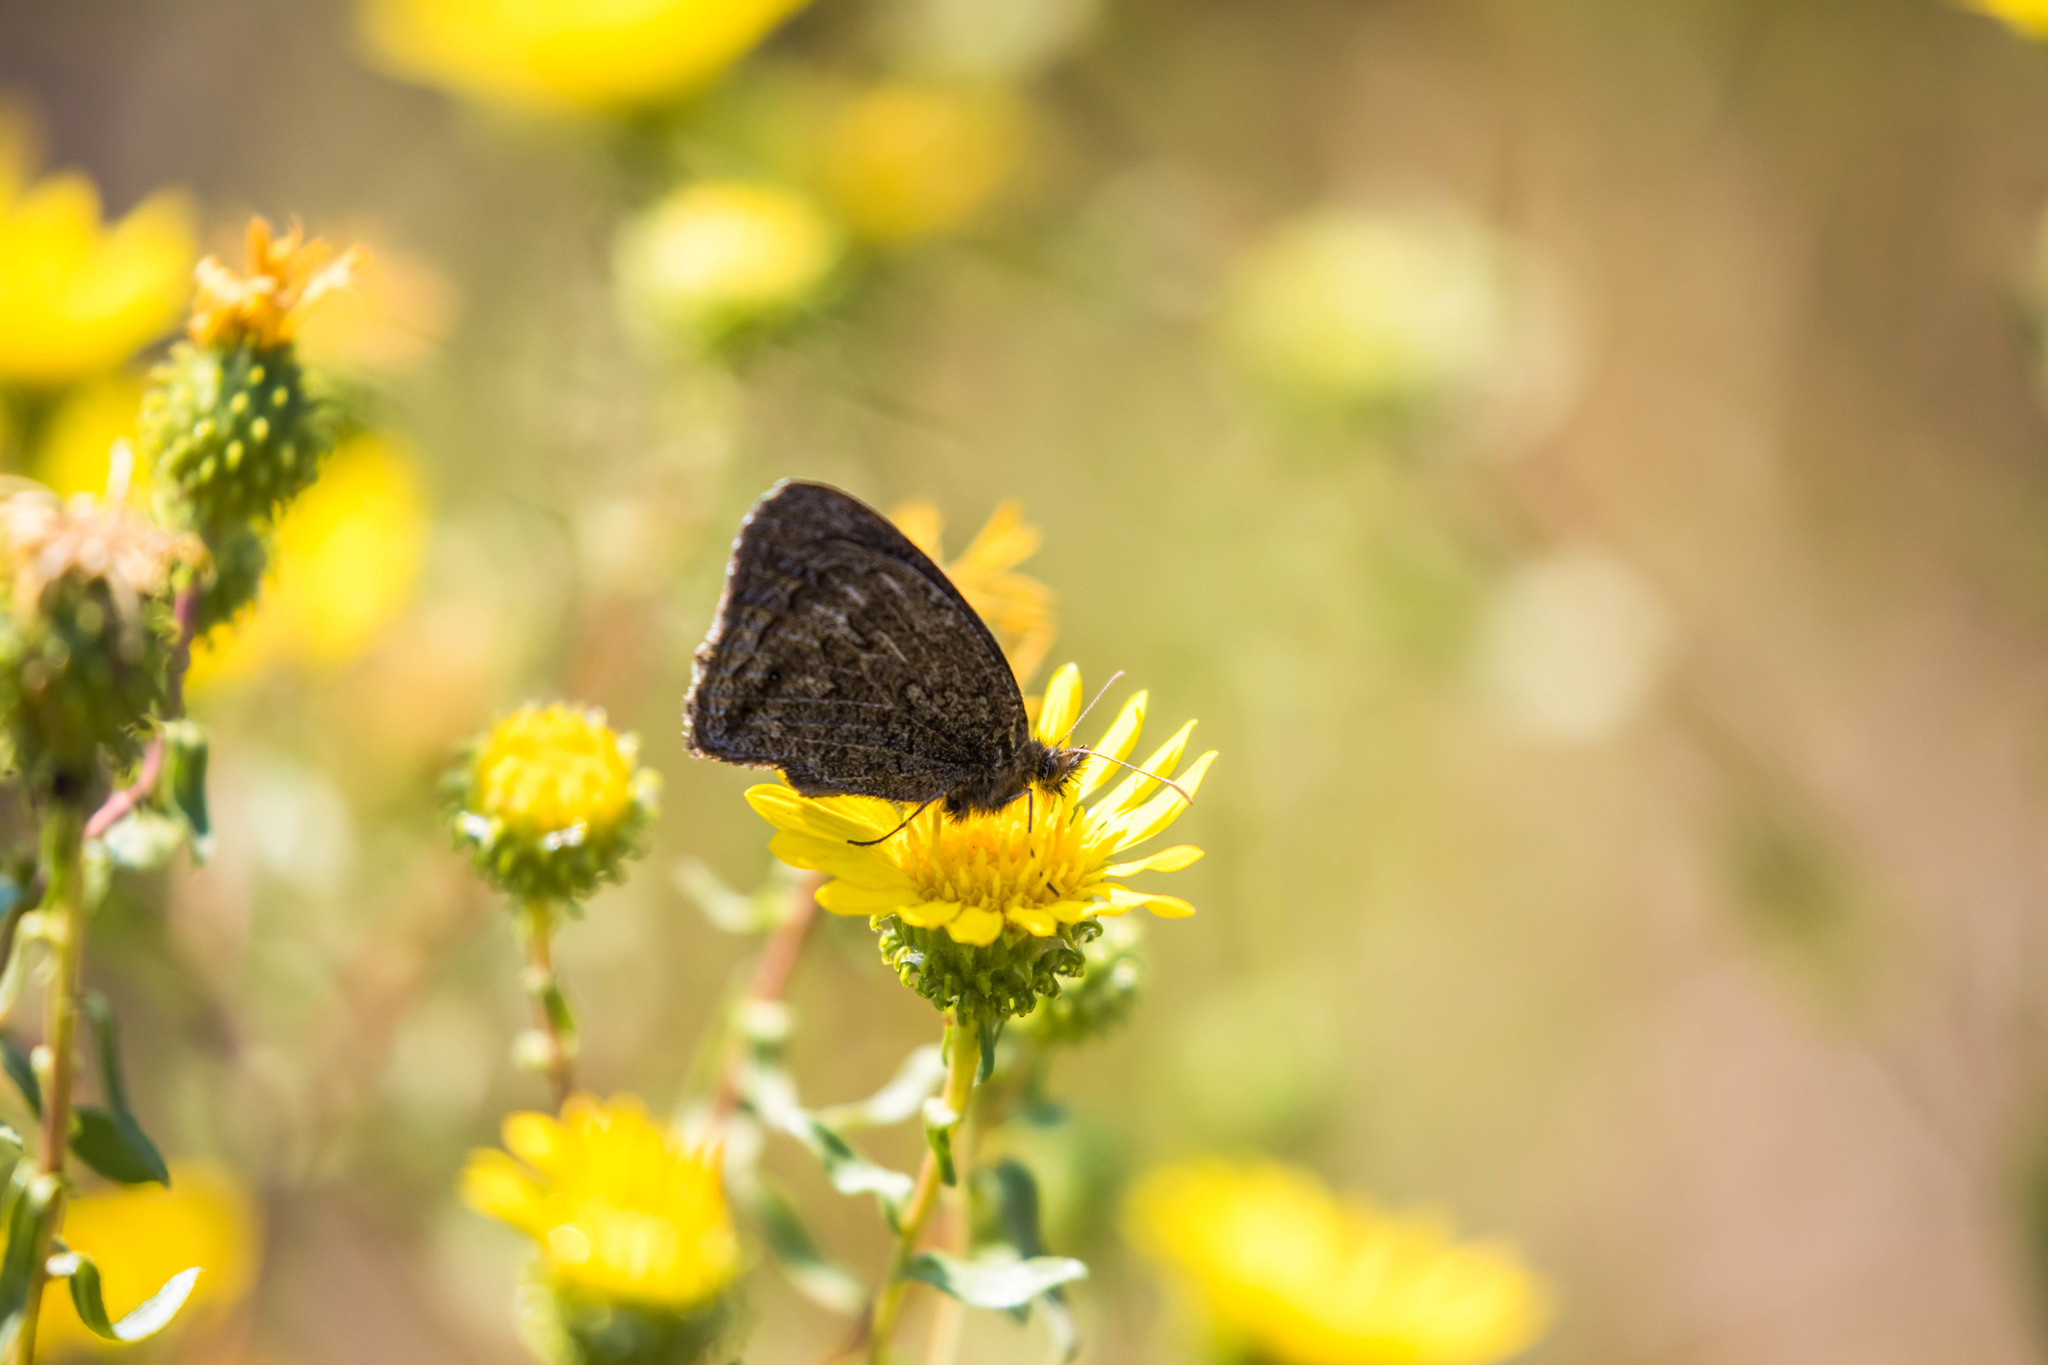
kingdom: Animalia
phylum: Arthropoda
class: Insecta
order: Lepidoptera
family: Nymphalidae
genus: Cercyonis
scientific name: Cercyonis oetus
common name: Small wood-nymph
